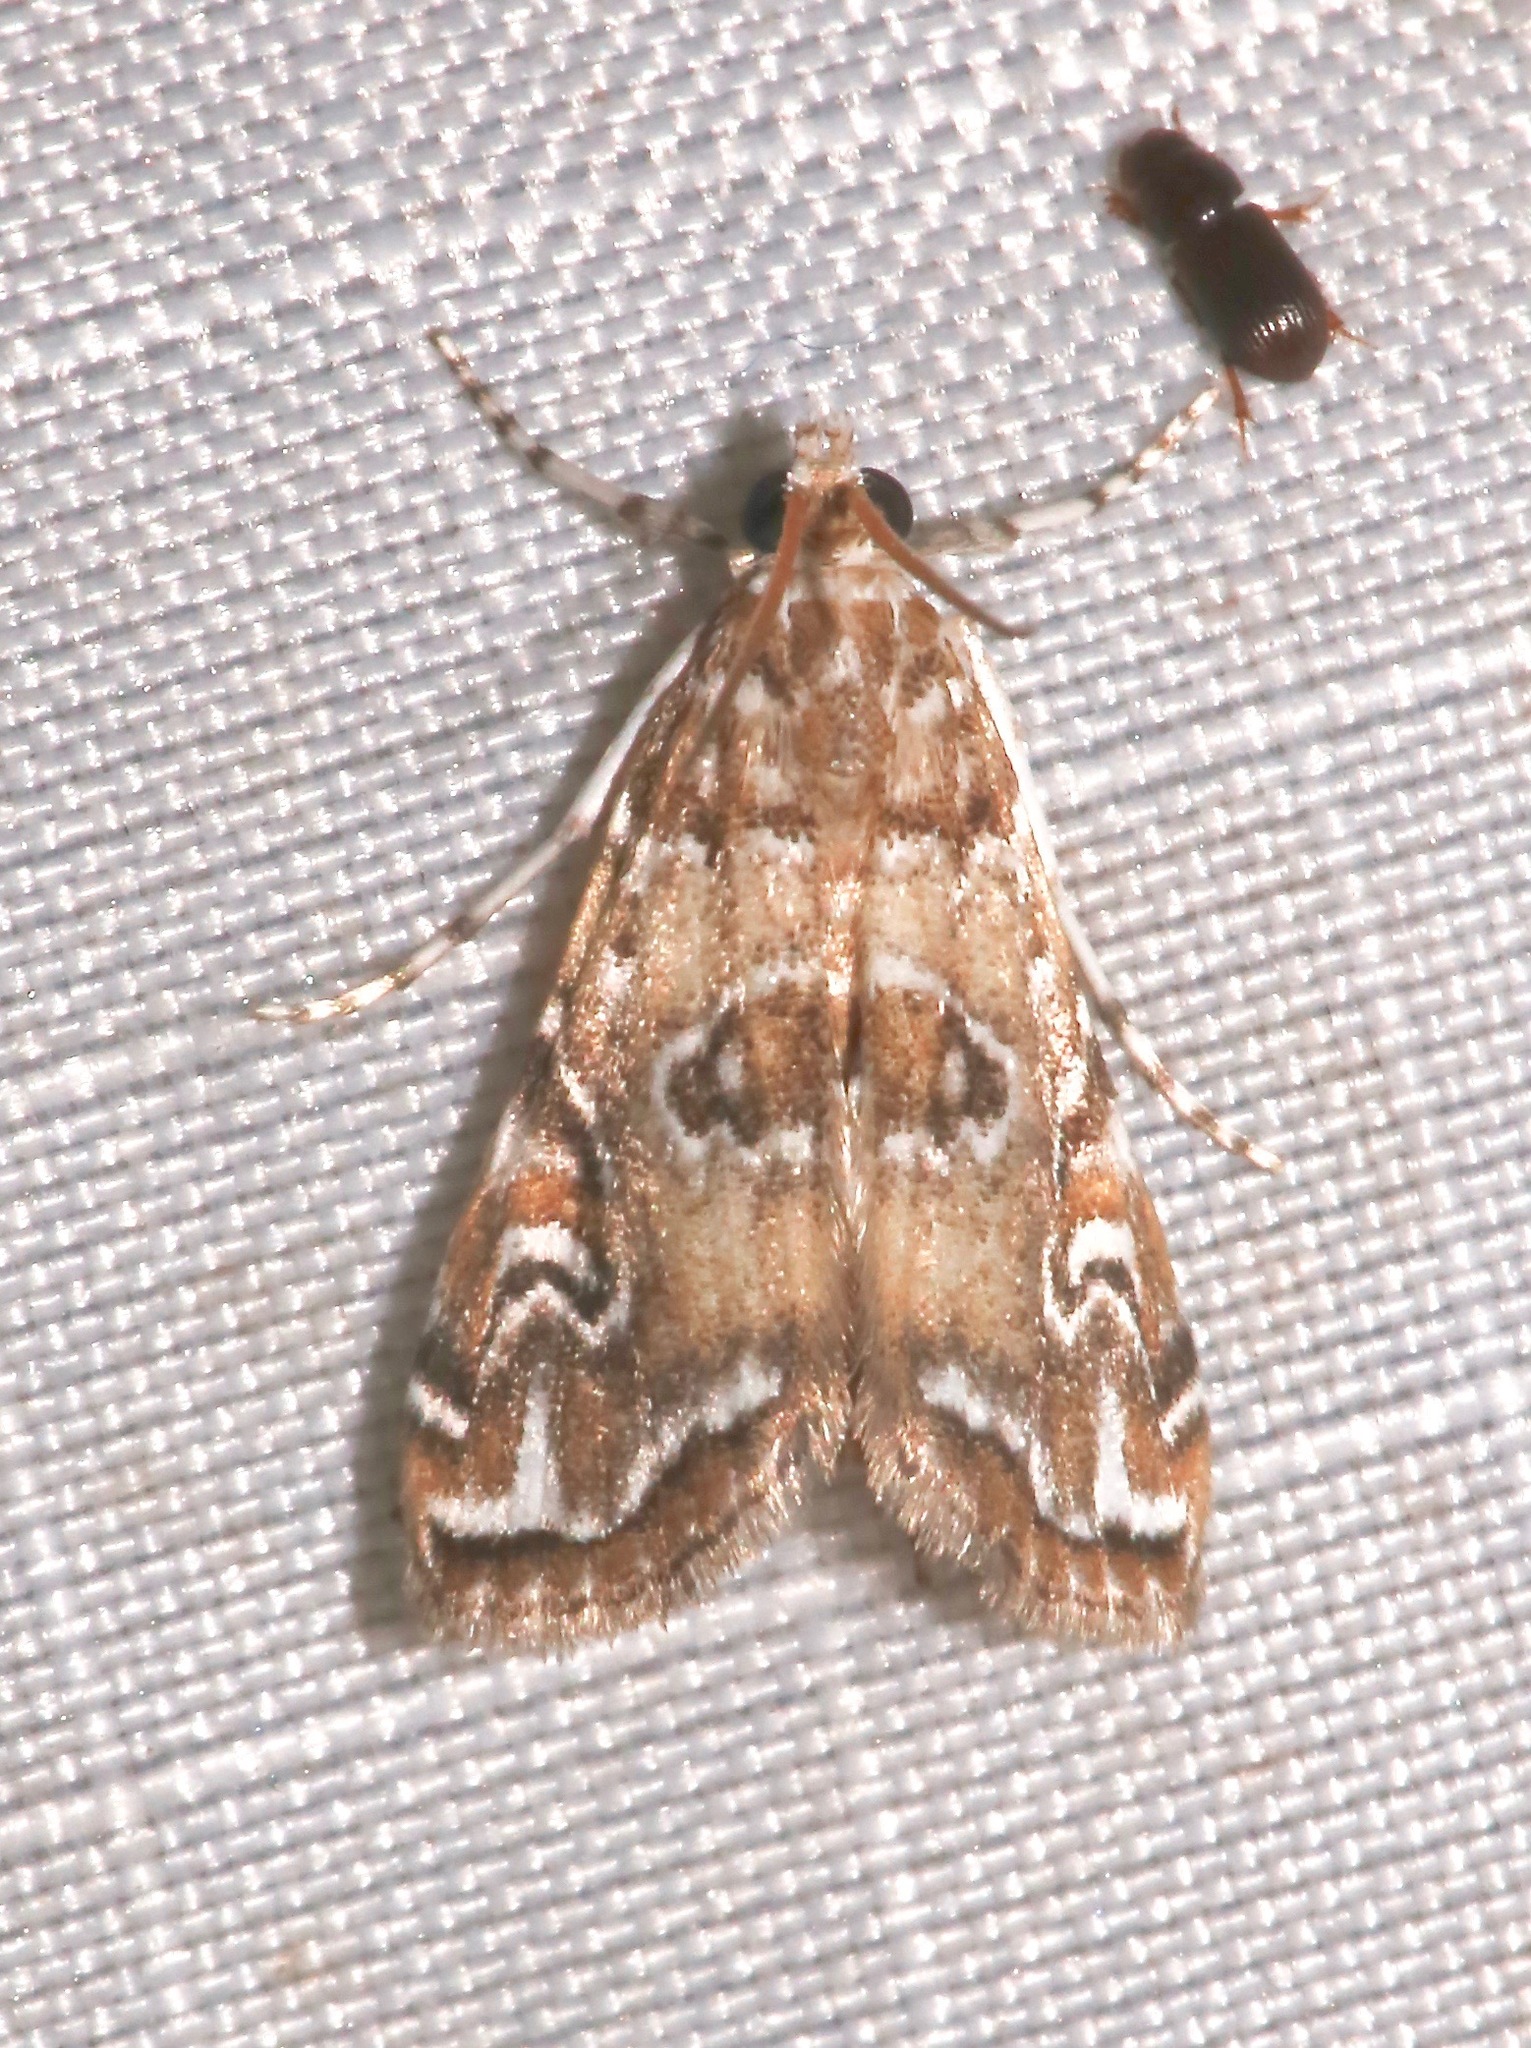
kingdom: Animalia
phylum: Arthropoda
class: Insecta
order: Lepidoptera
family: Crambidae
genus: Elophila
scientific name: Elophila gyralis
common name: Waterlily borer moth
